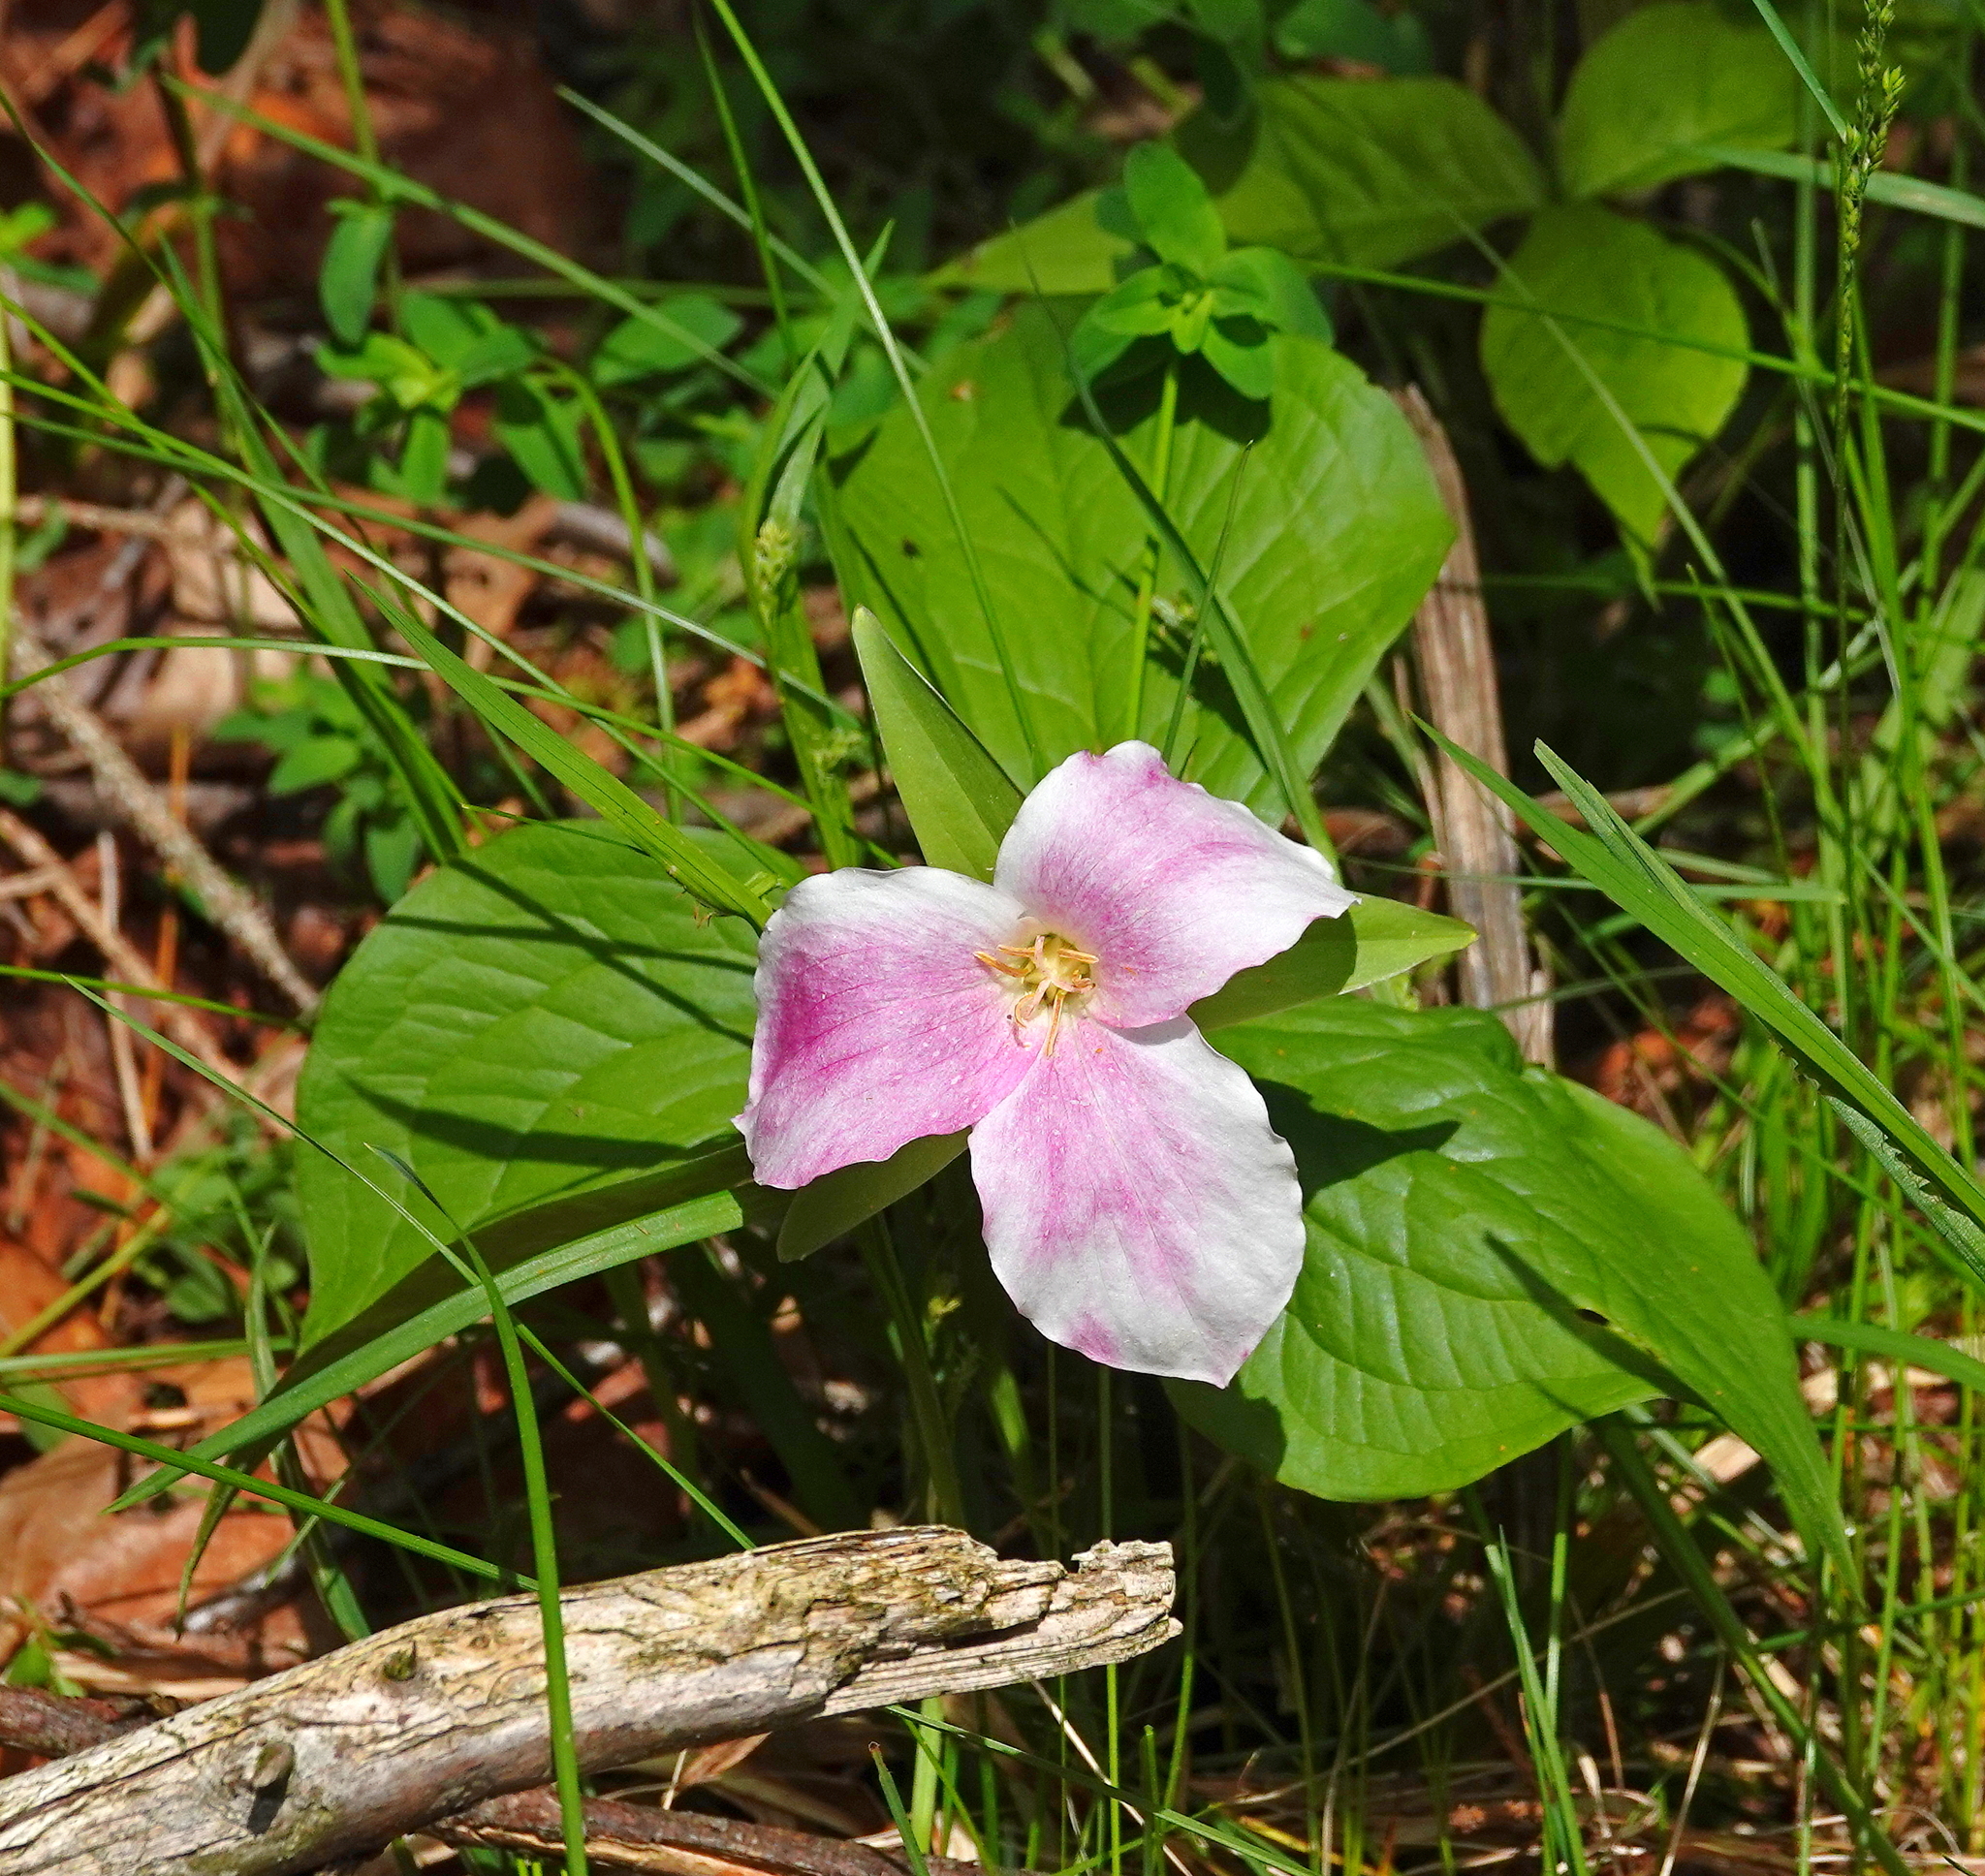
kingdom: Plantae
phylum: Tracheophyta
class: Liliopsida
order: Liliales
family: Melanthiaceae
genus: Trillium
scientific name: Trillium grandiflorum
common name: Great white trillium
